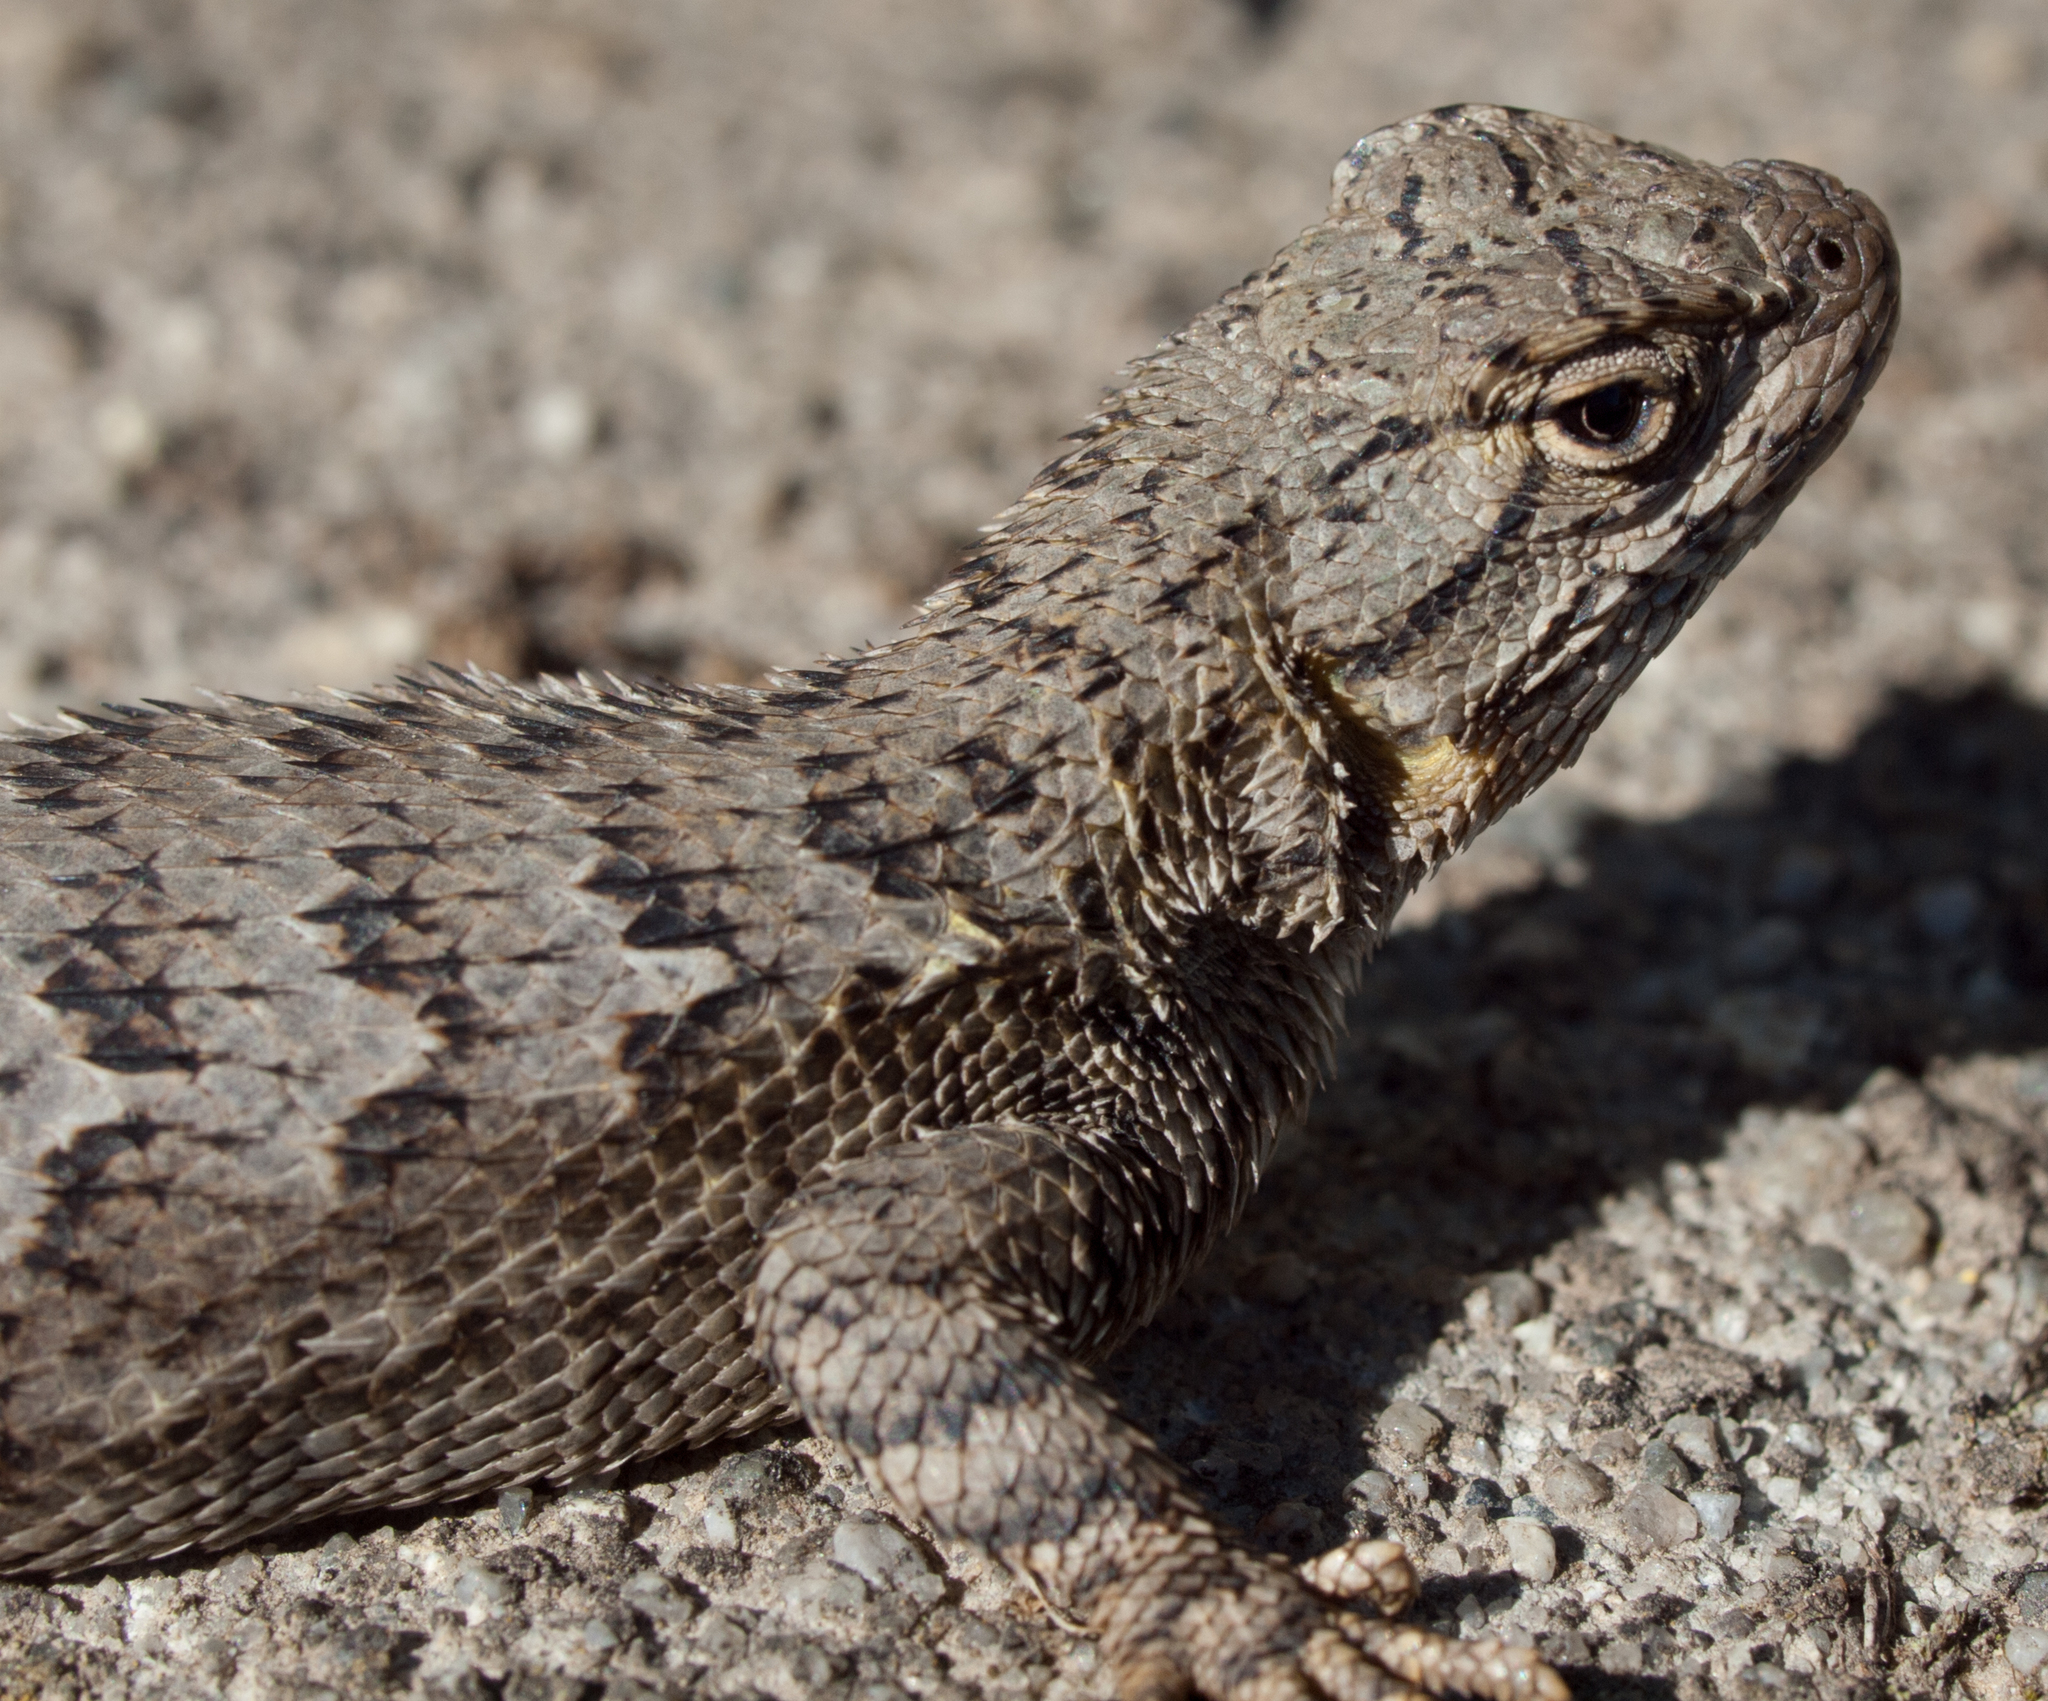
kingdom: Animalia
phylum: Chordata
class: Squamata
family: Phrynosomatidae
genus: Sceloporus
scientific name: Sceloporus occidentalis
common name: Western fence lizard
